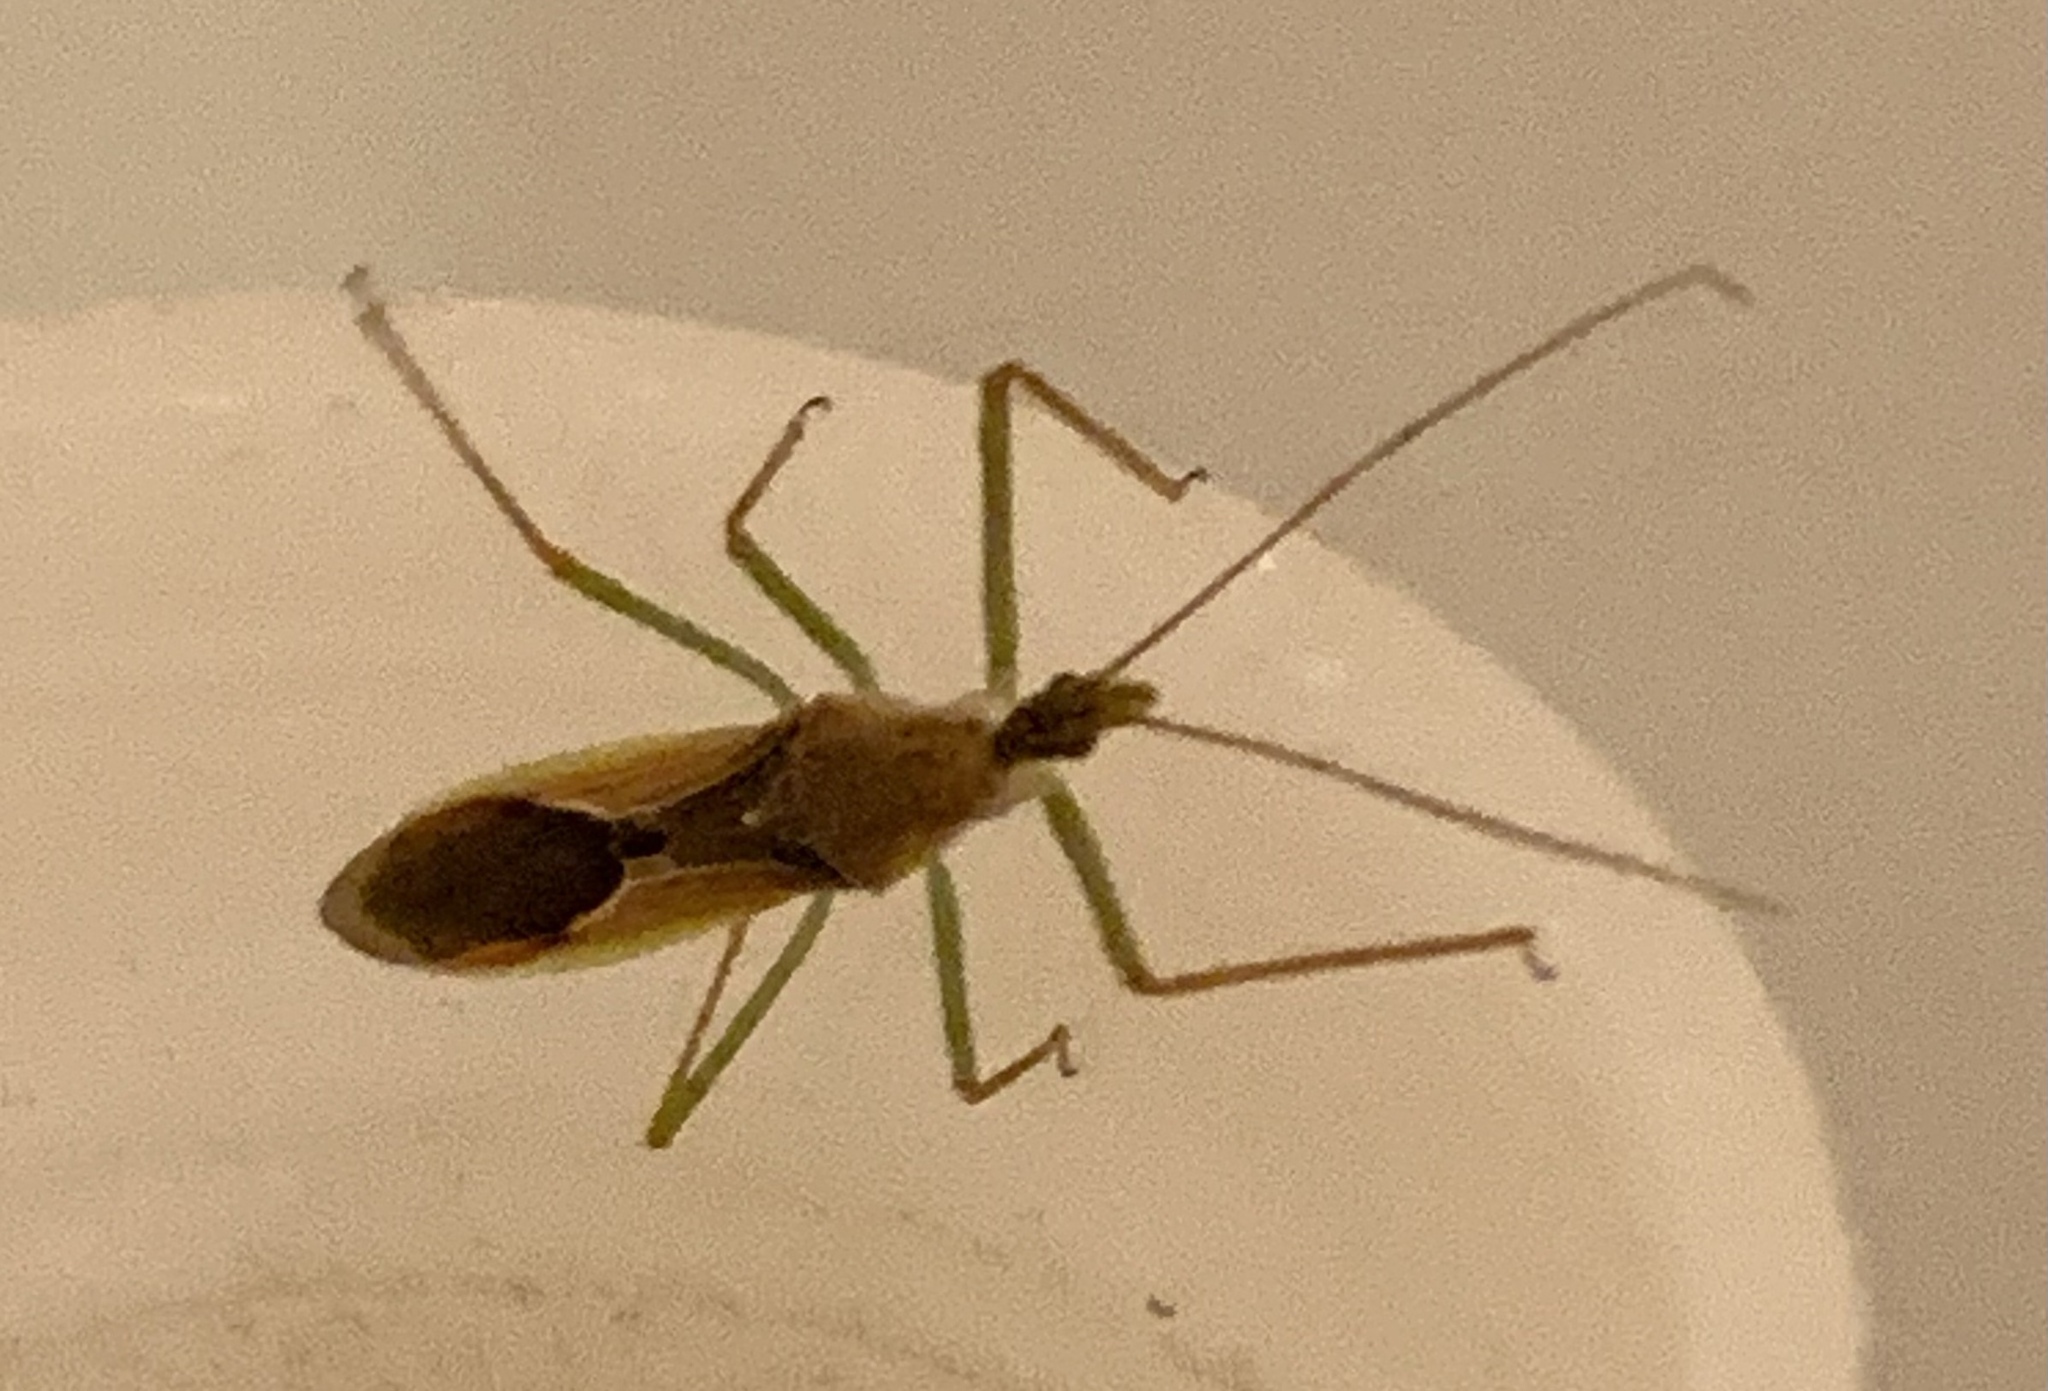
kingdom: Animalia
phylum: Arthropoda
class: Insecta
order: Hemiptera
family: Reduviidae
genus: Zelus
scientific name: Zelus renardii
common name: Assassin bug
